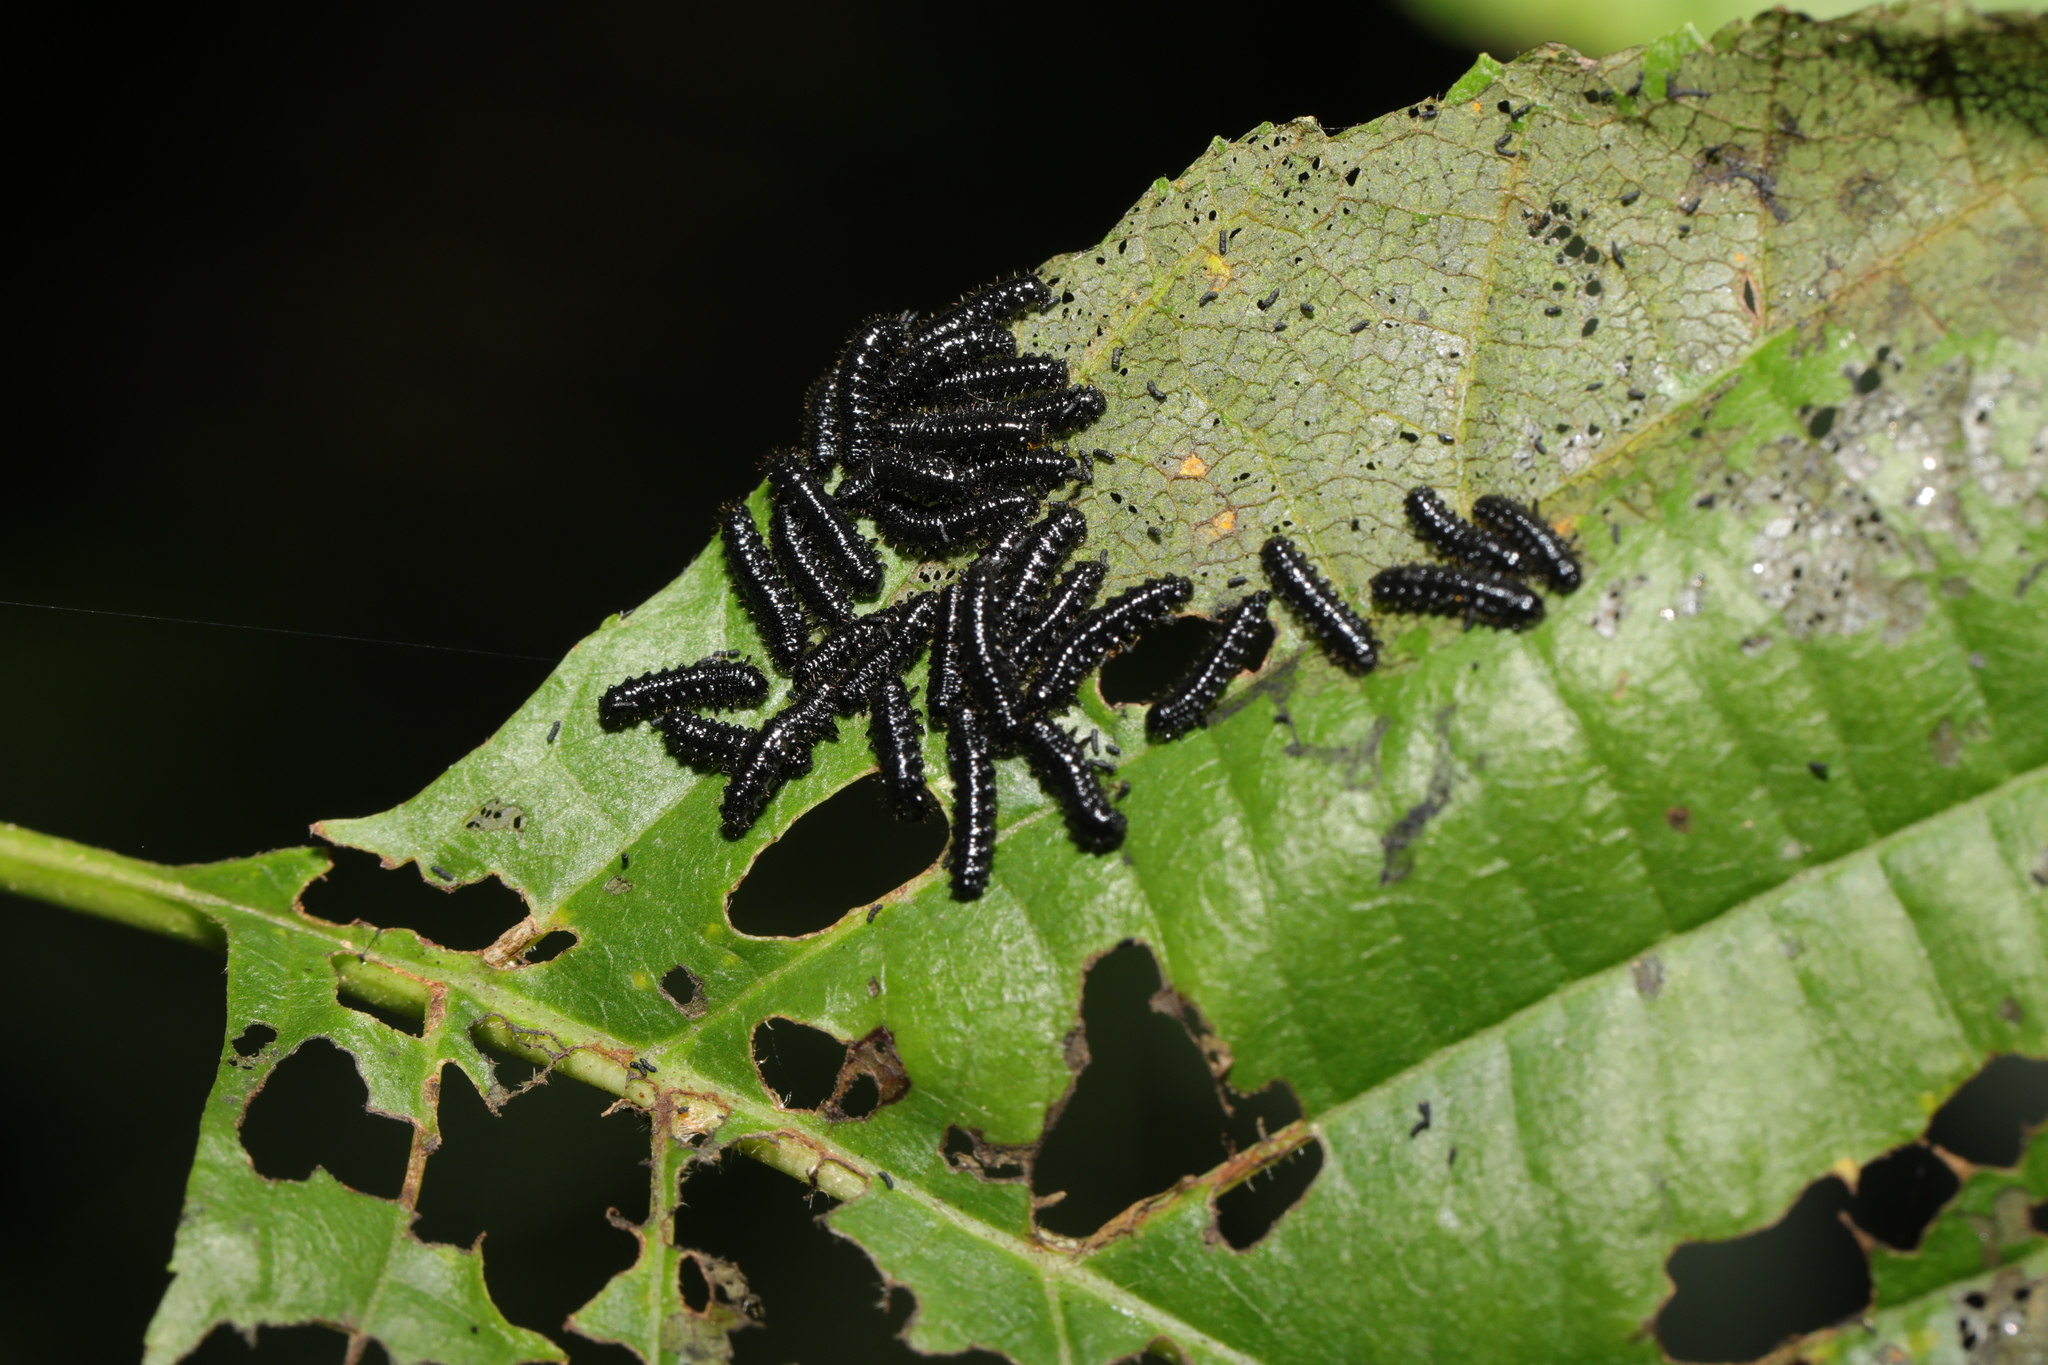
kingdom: Animalia
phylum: Arthropoda
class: Insecta
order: Coleoptera
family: Chrysomelidae
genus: Agelastica
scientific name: Agelastica alni
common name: Alder leaf beetle
